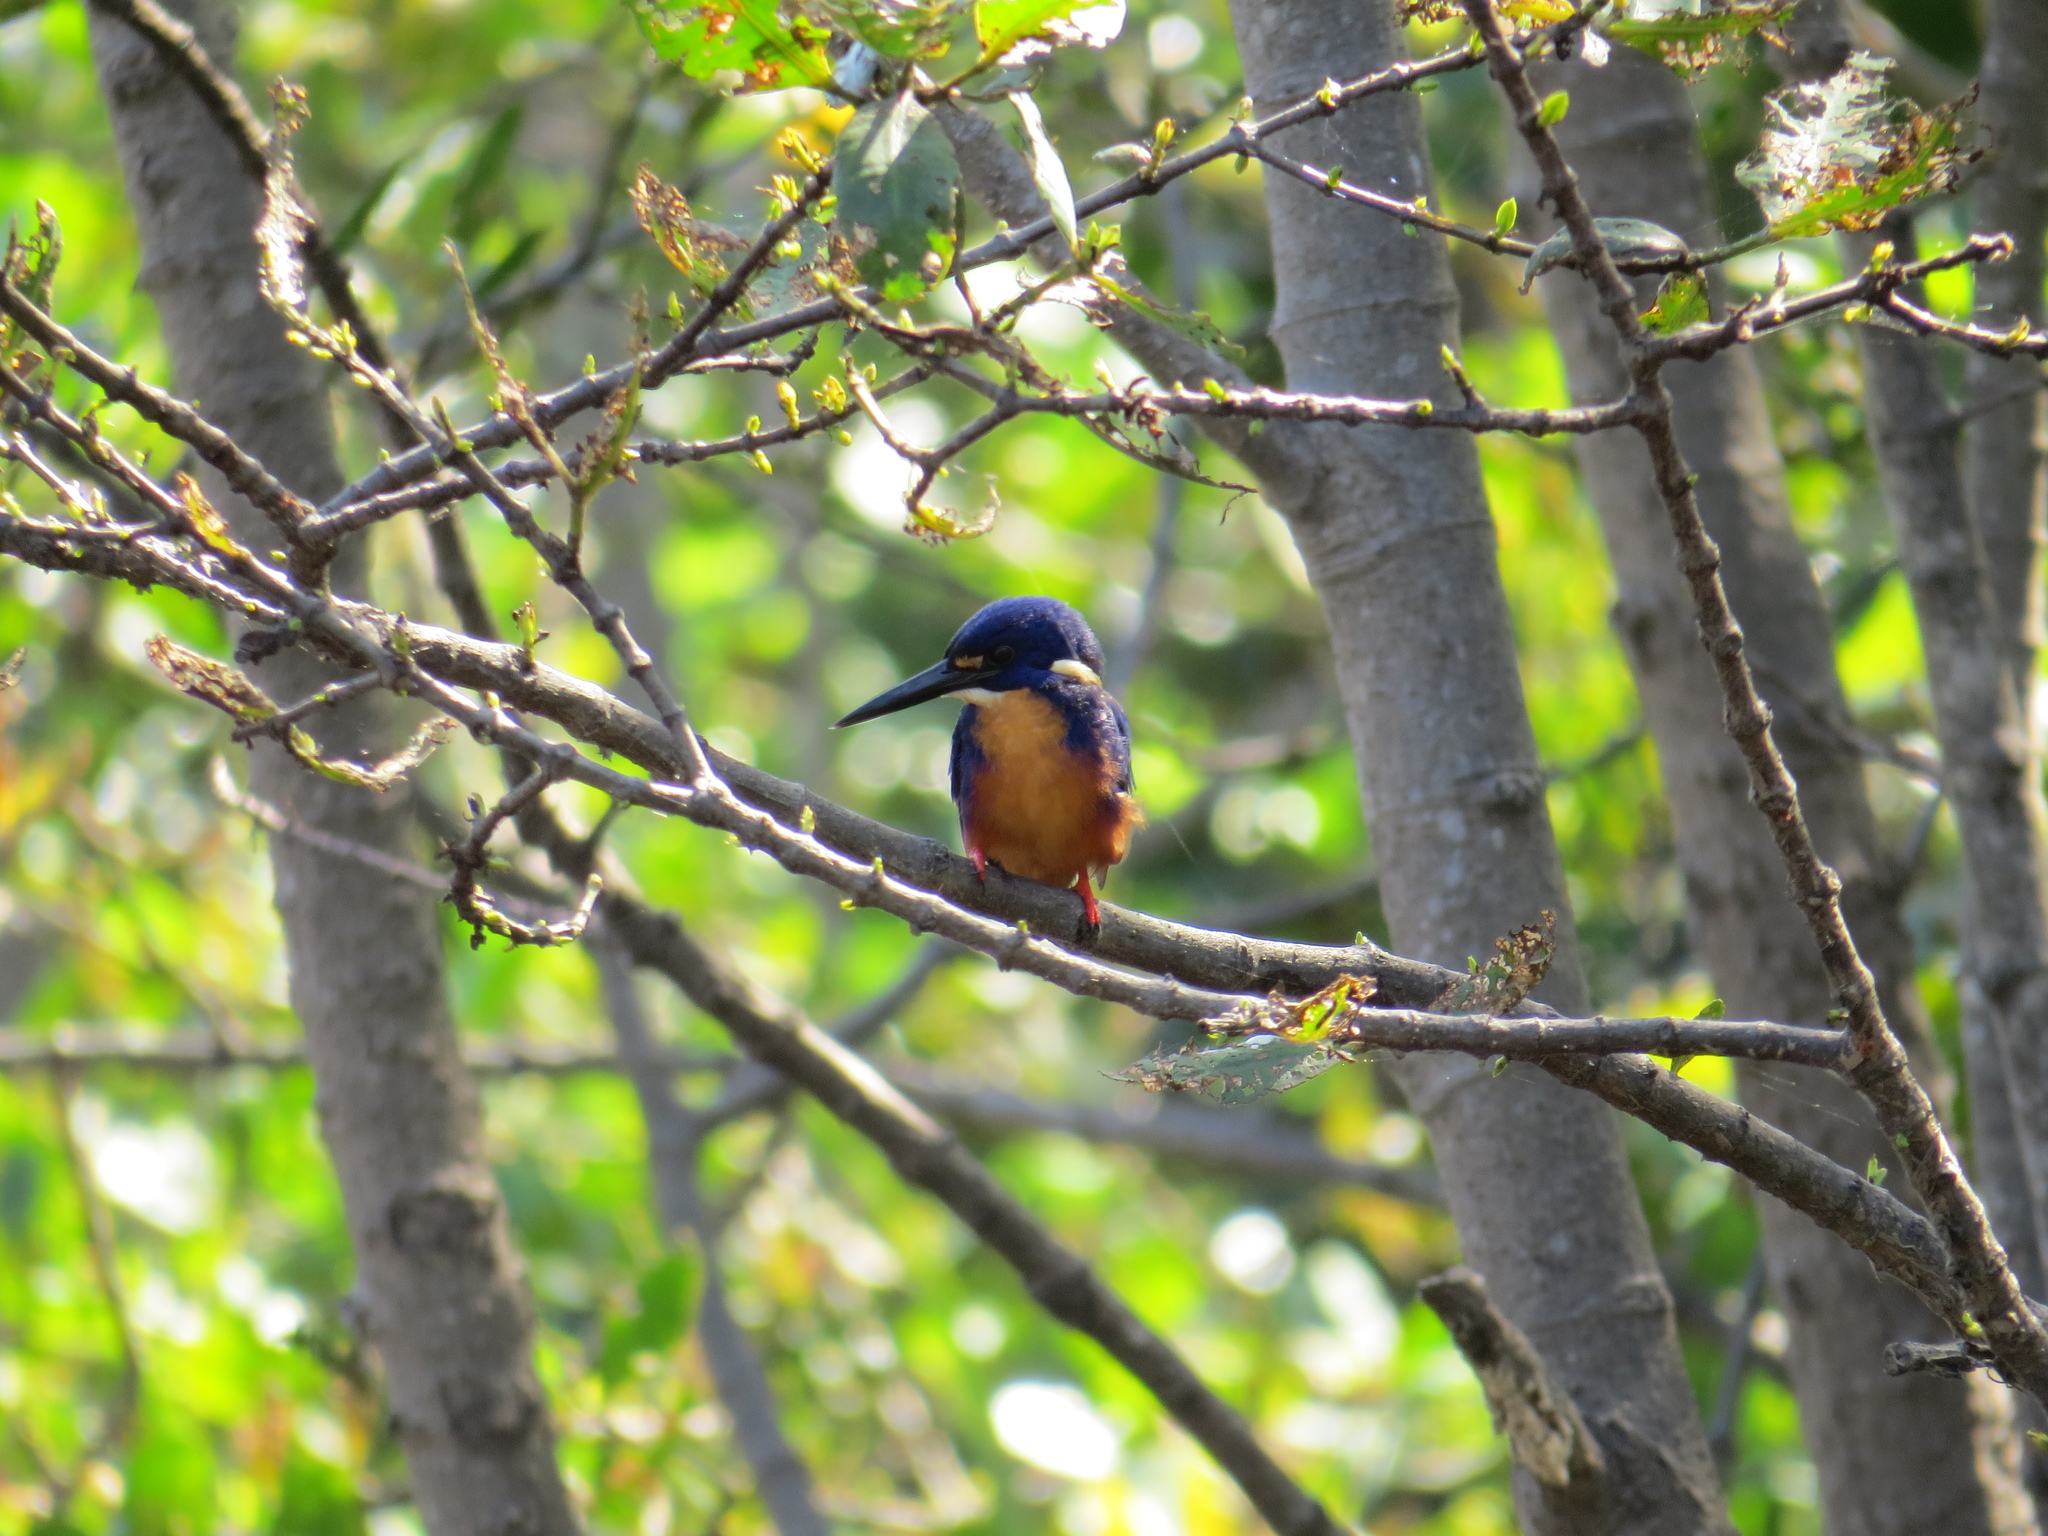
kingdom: Animalia
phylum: Chordata
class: Aves
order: Coraciiformes
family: Alcedinidae
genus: Ceyx
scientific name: Ceyx azureus
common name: Azure kingfisher
